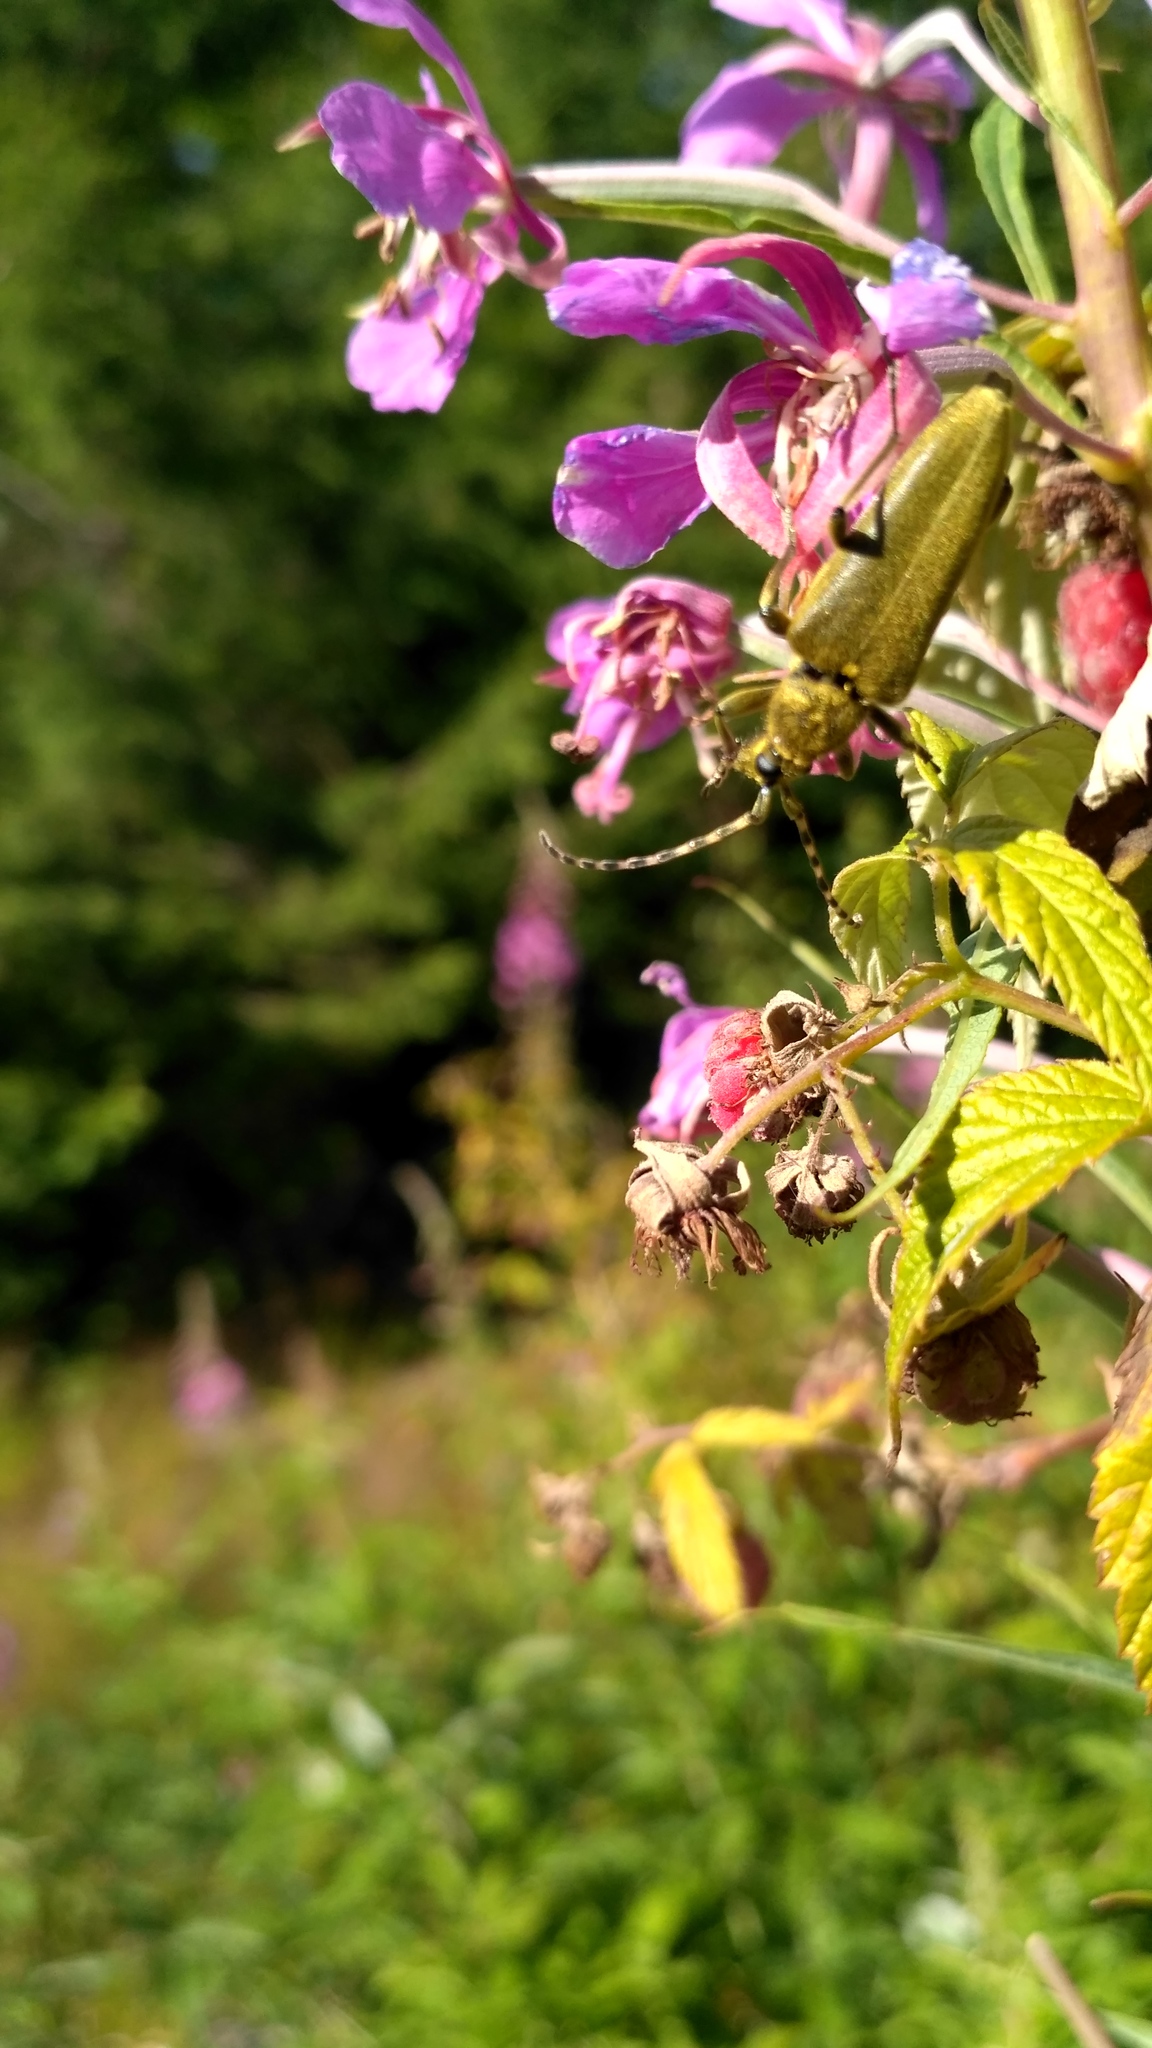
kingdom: Animalia
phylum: Arthropoda
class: Insecta
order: Coleoptera
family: Cerambycidae
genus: Lepturobosca
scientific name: Lepturobosca virens
